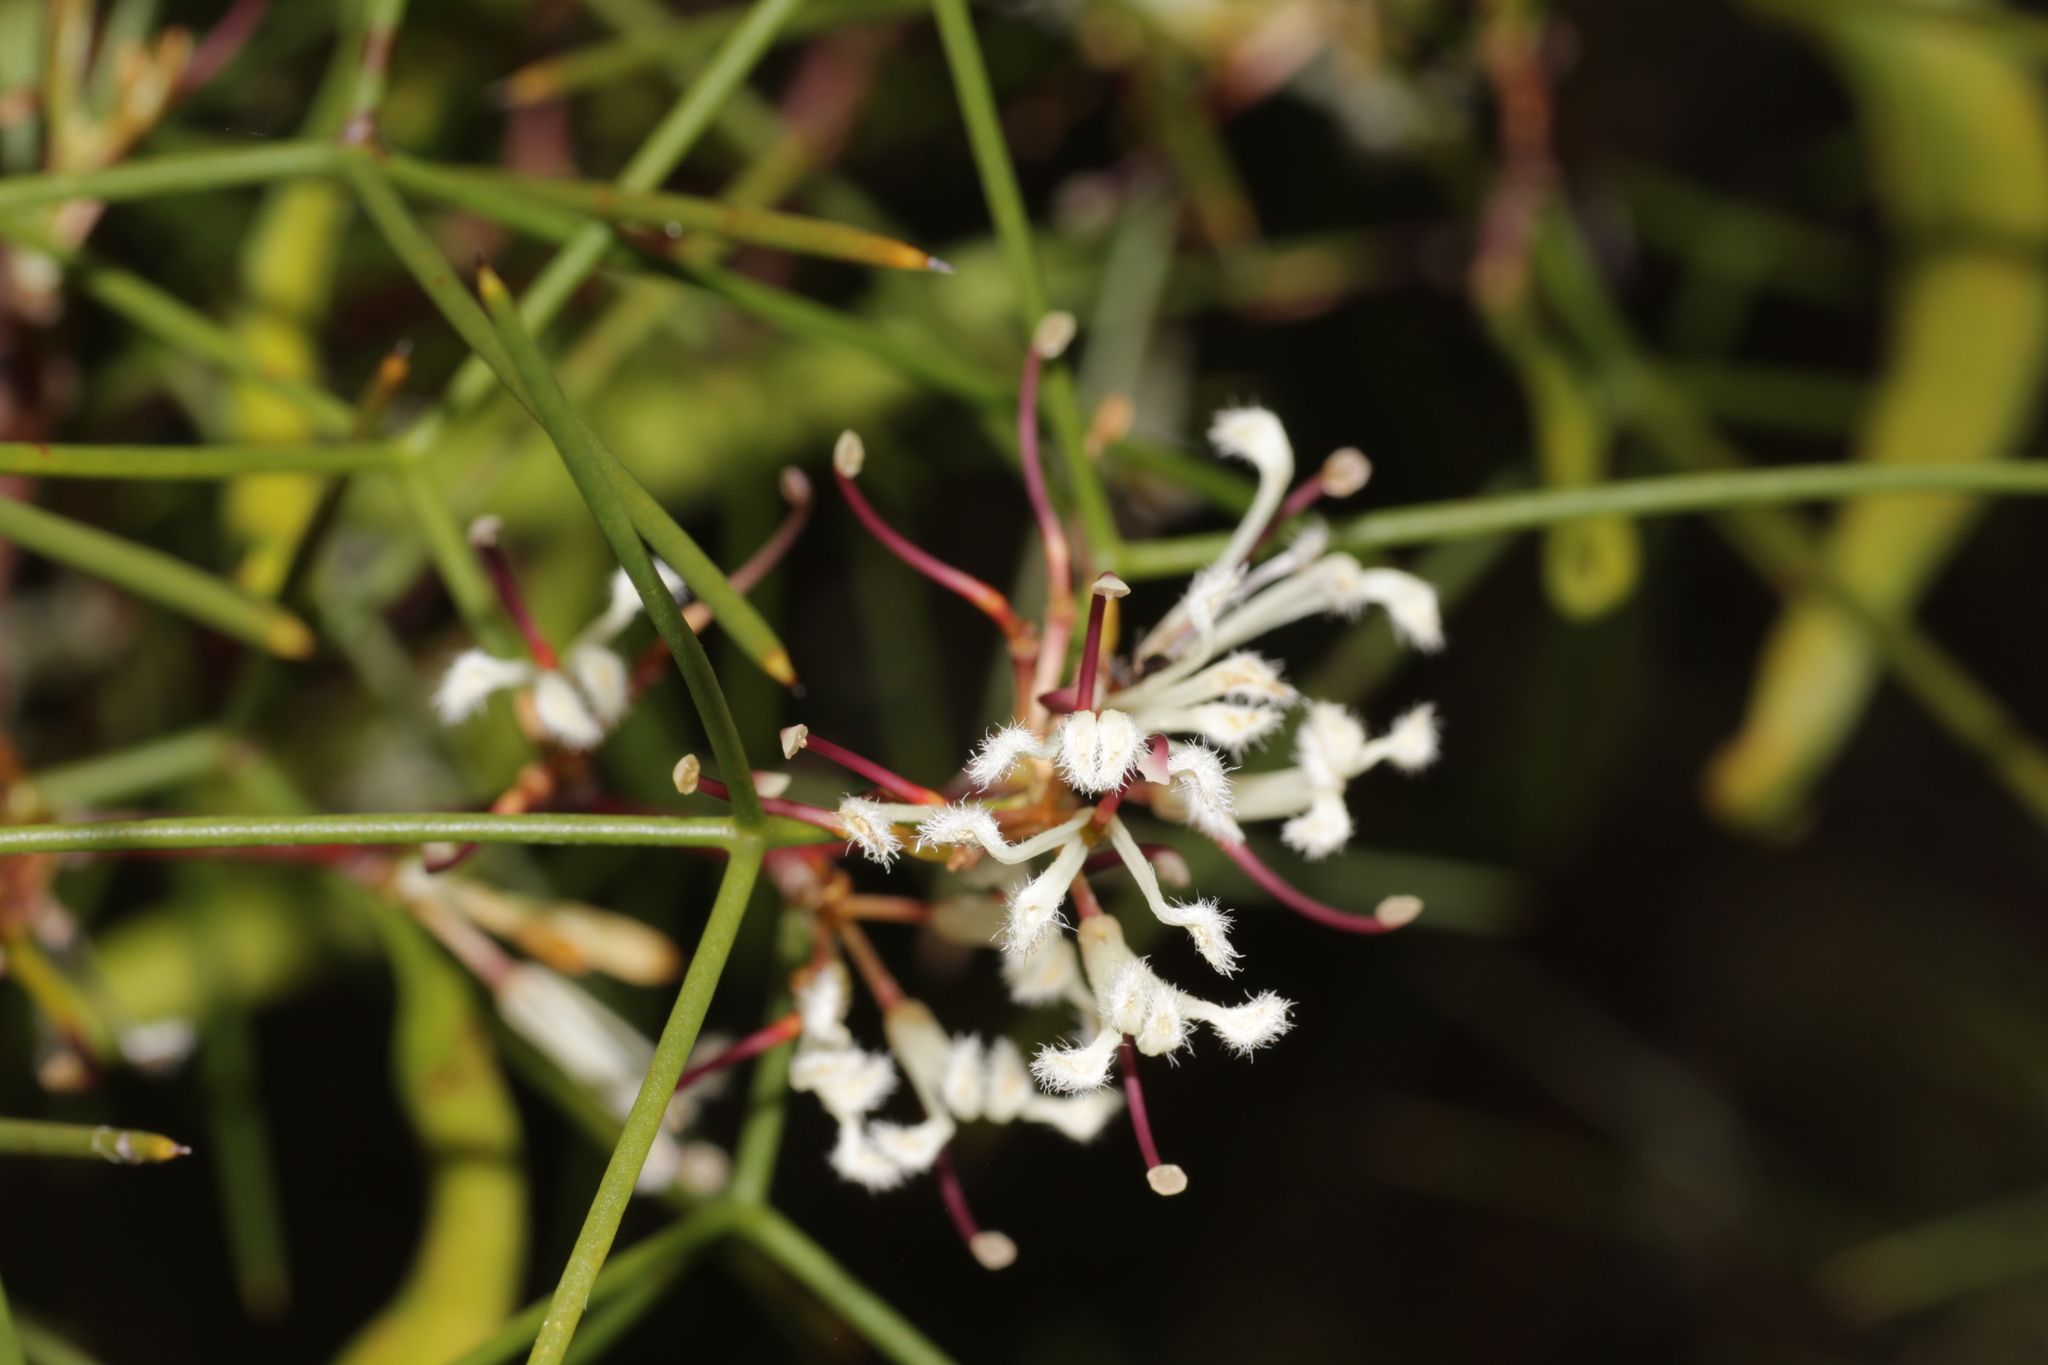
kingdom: Plantae
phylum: Tracheophyta
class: Magnoliopsida
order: Proteales
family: Proteaceae
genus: Hakea
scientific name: Hakea trifurcata
